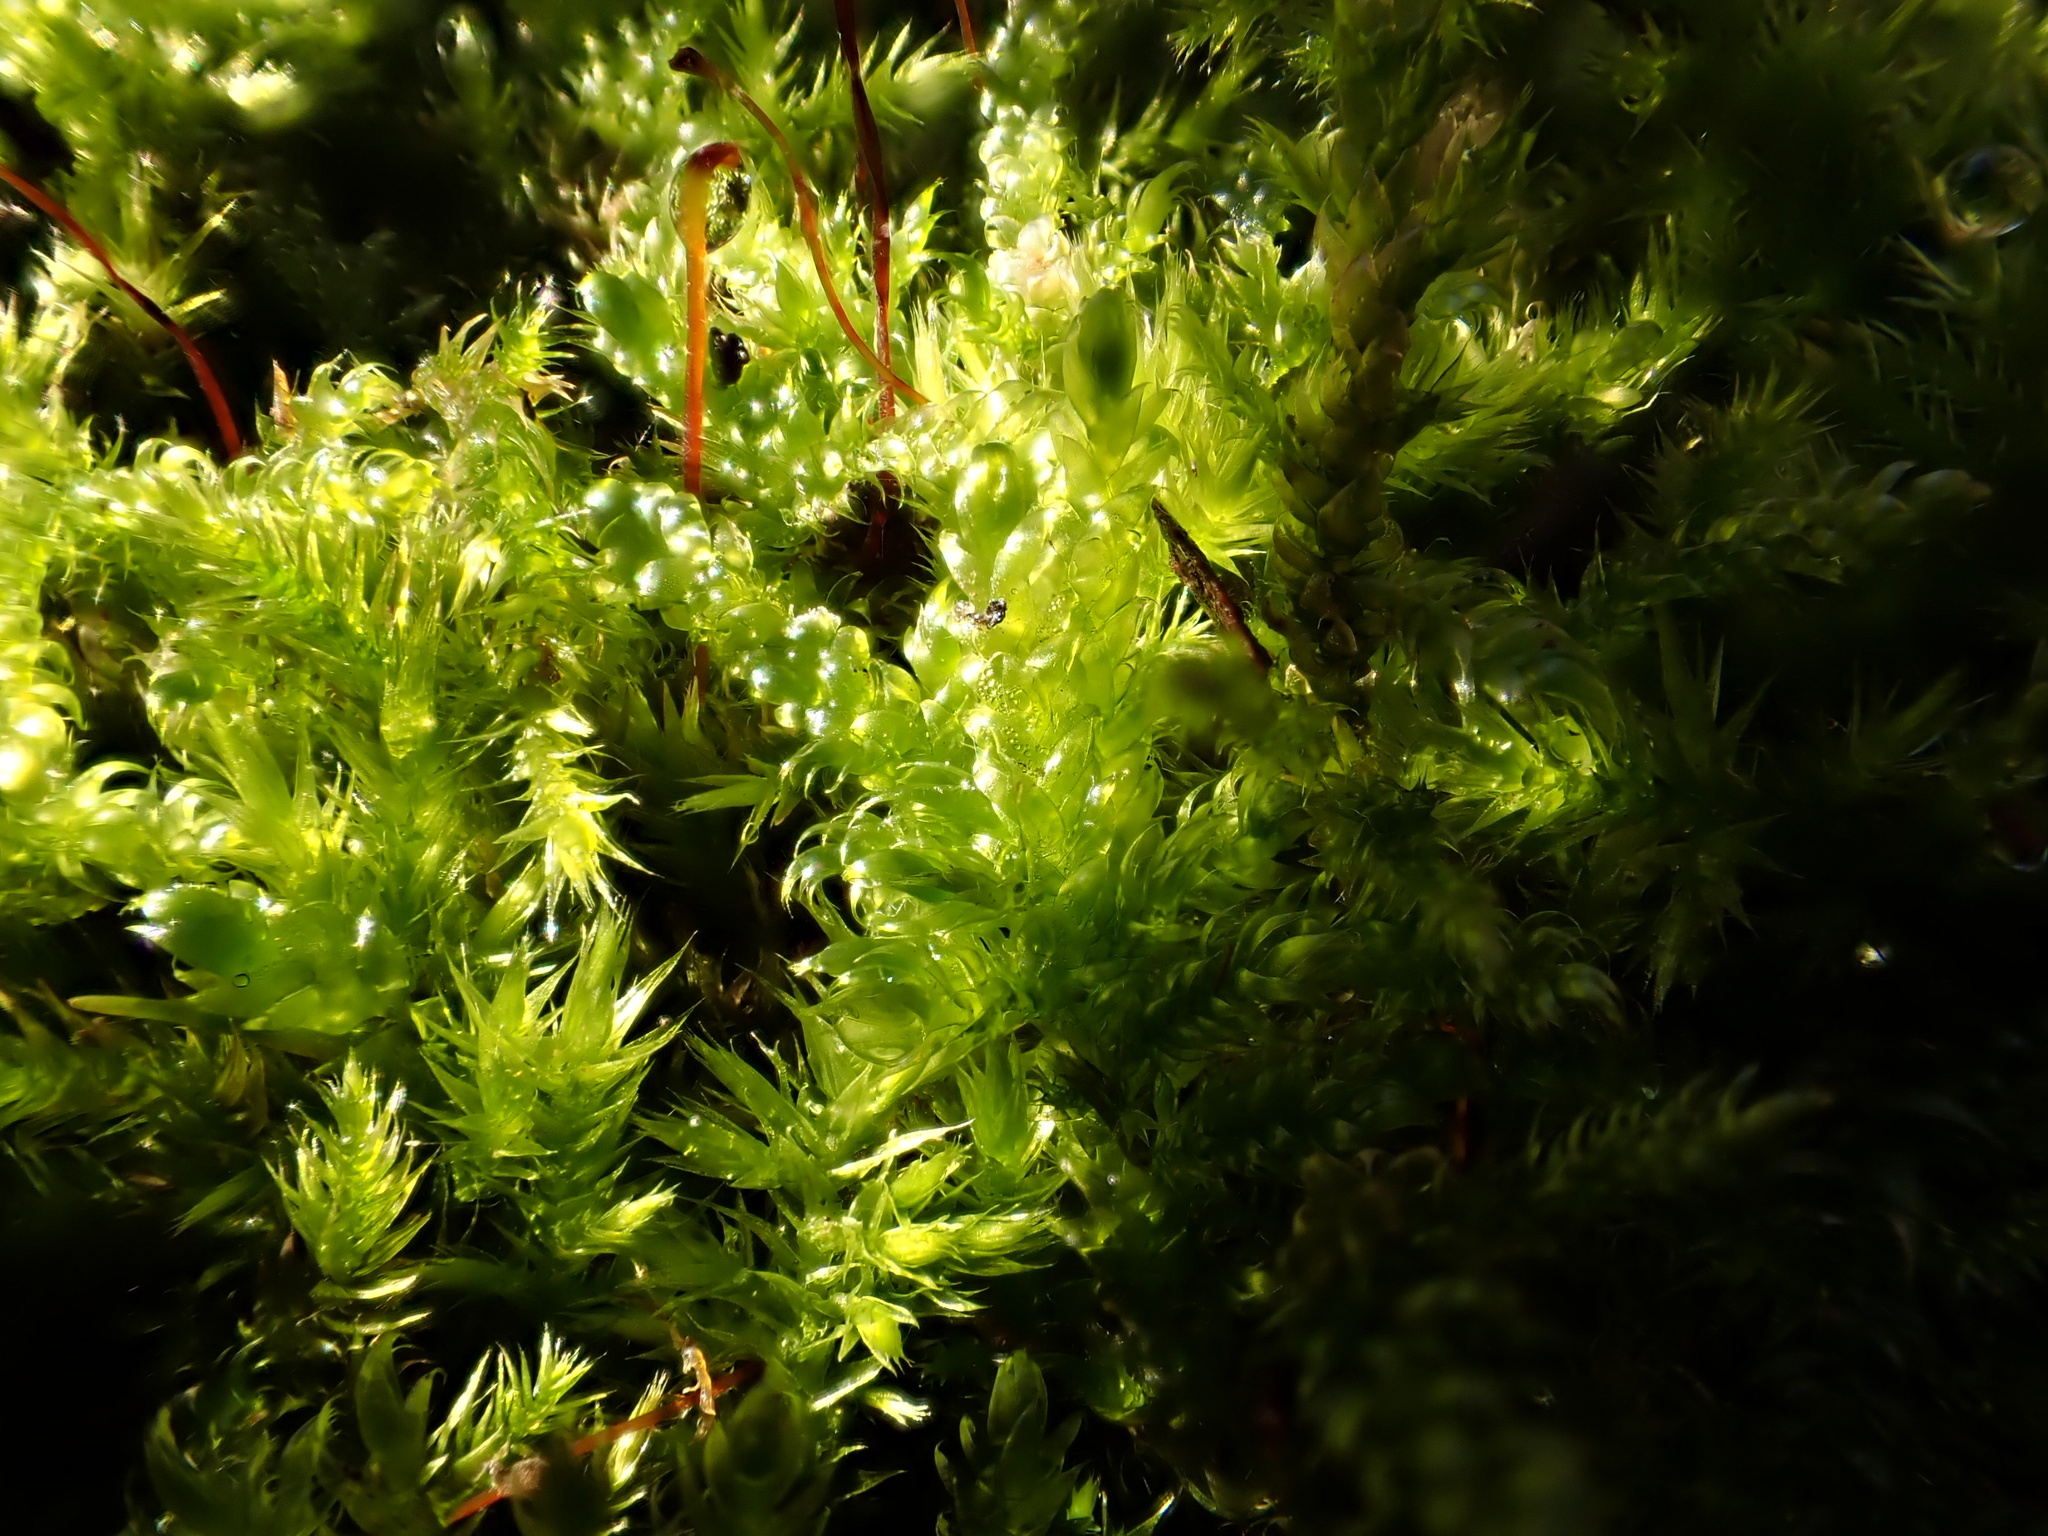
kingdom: Plantae
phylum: Bryophyta
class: Bryopsida
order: Hypnales
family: Hypnaceae
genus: Hypnum
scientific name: Hypnum cupressiforme
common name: Cypress-leaved plait-moss
